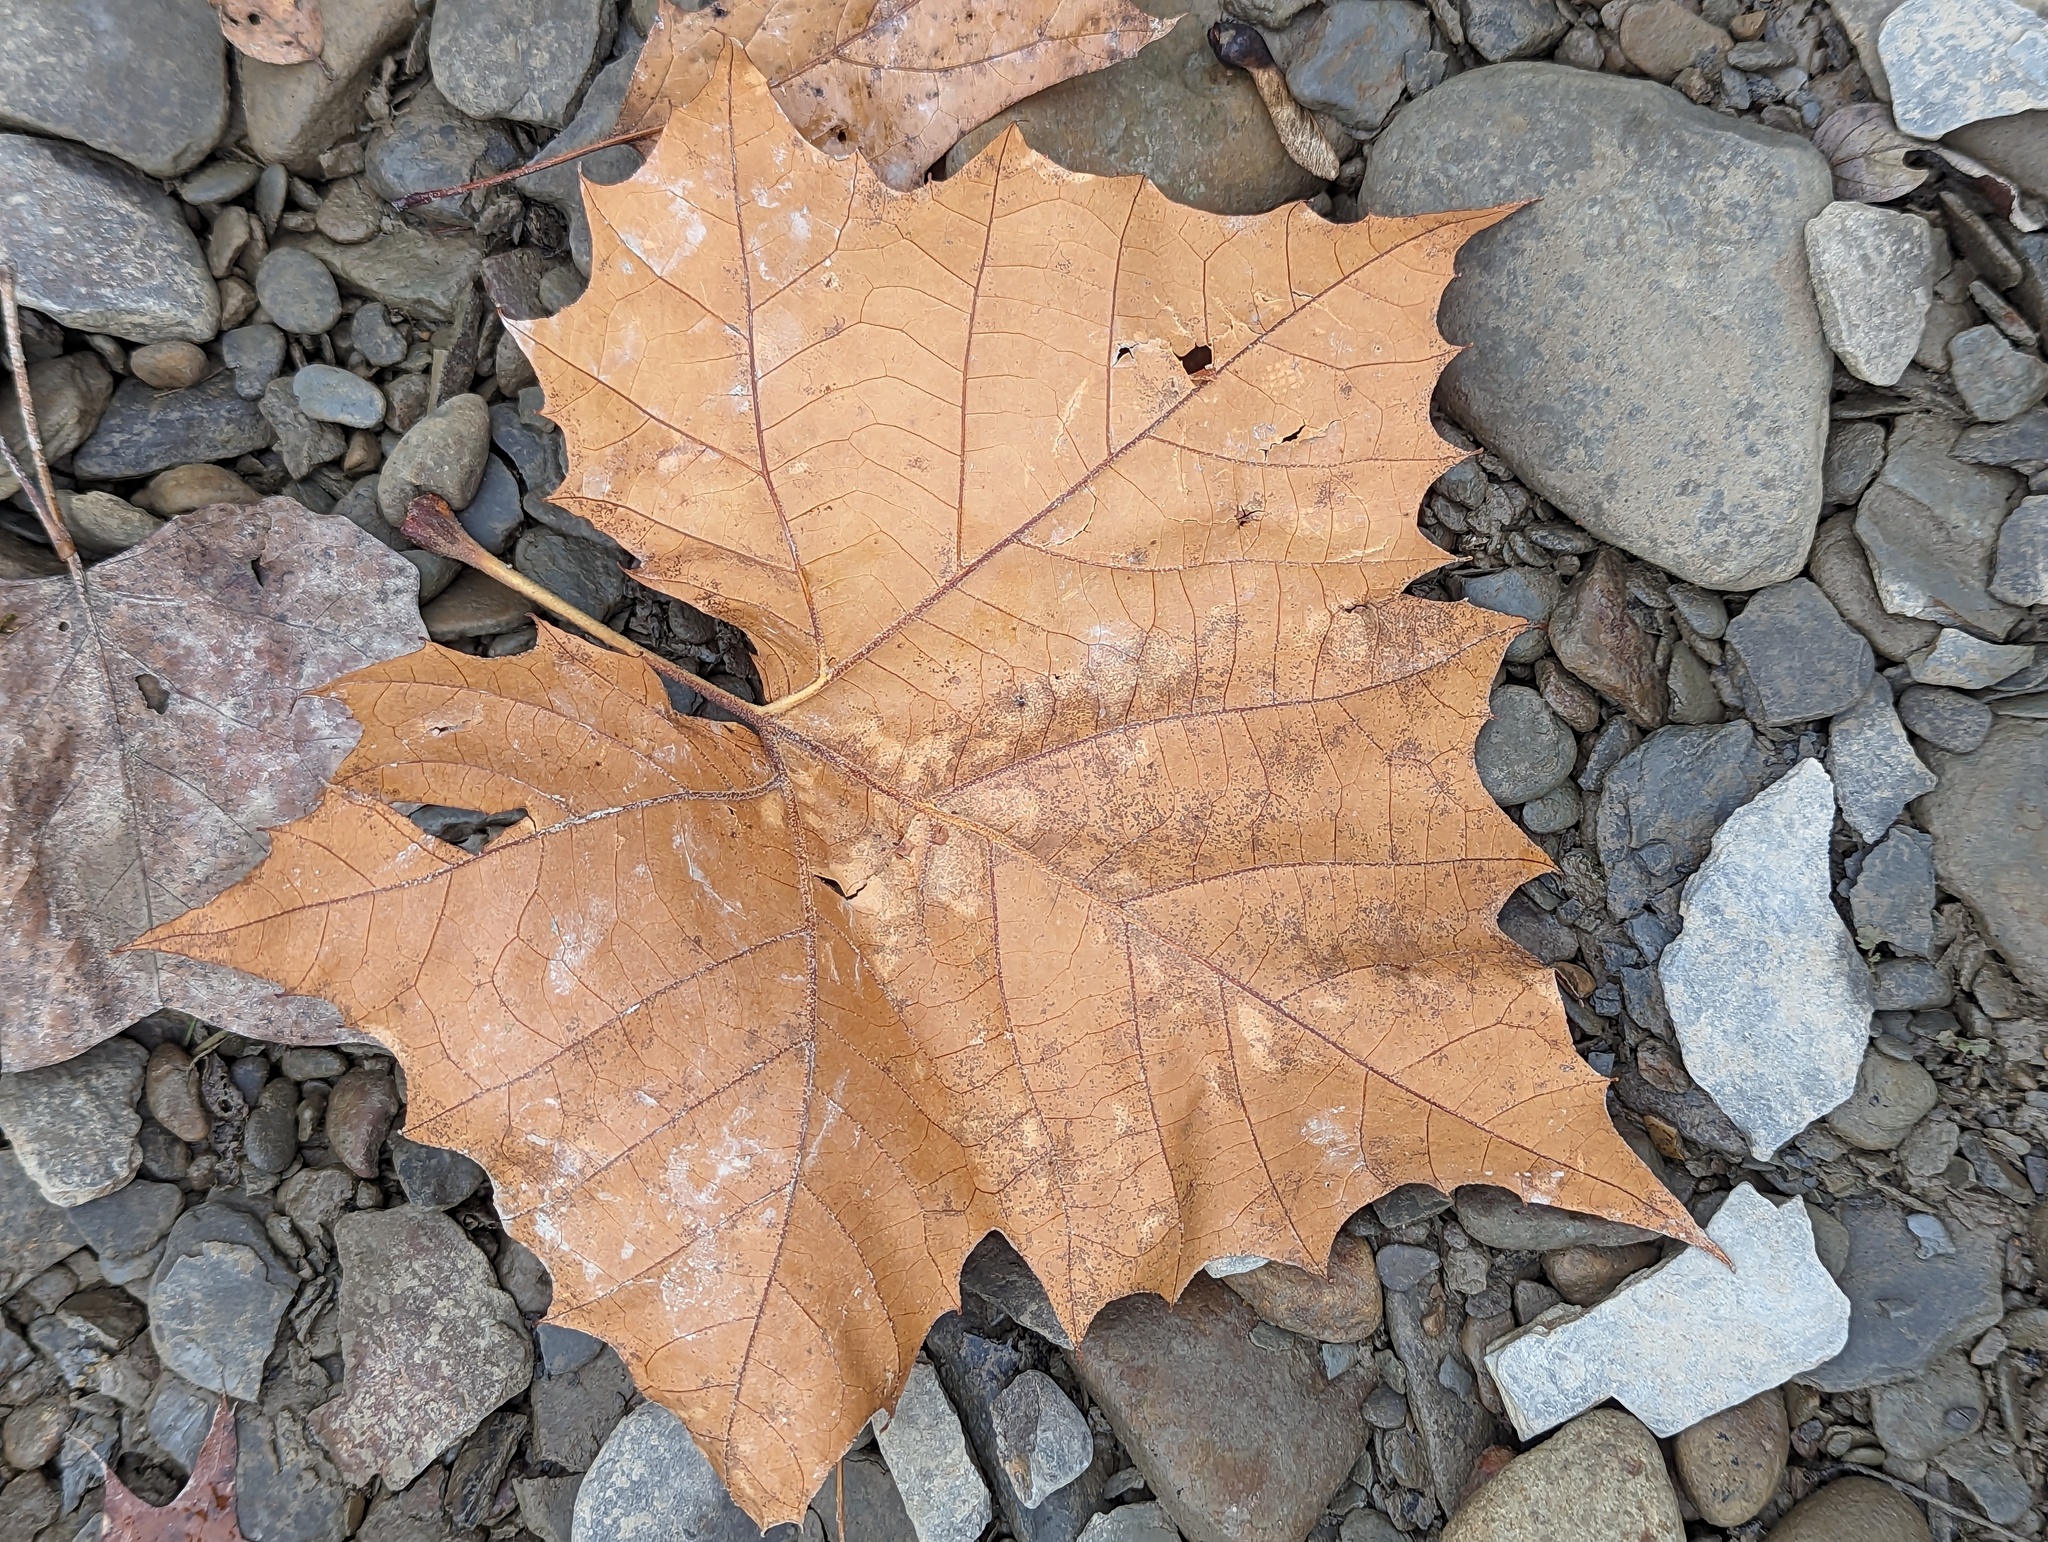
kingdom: Plantae
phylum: Tracheophyta
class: Magnoliopsida
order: Proteales
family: Platanaceae
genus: Platanus
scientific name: Platanus occidentalis
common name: American sycamore
